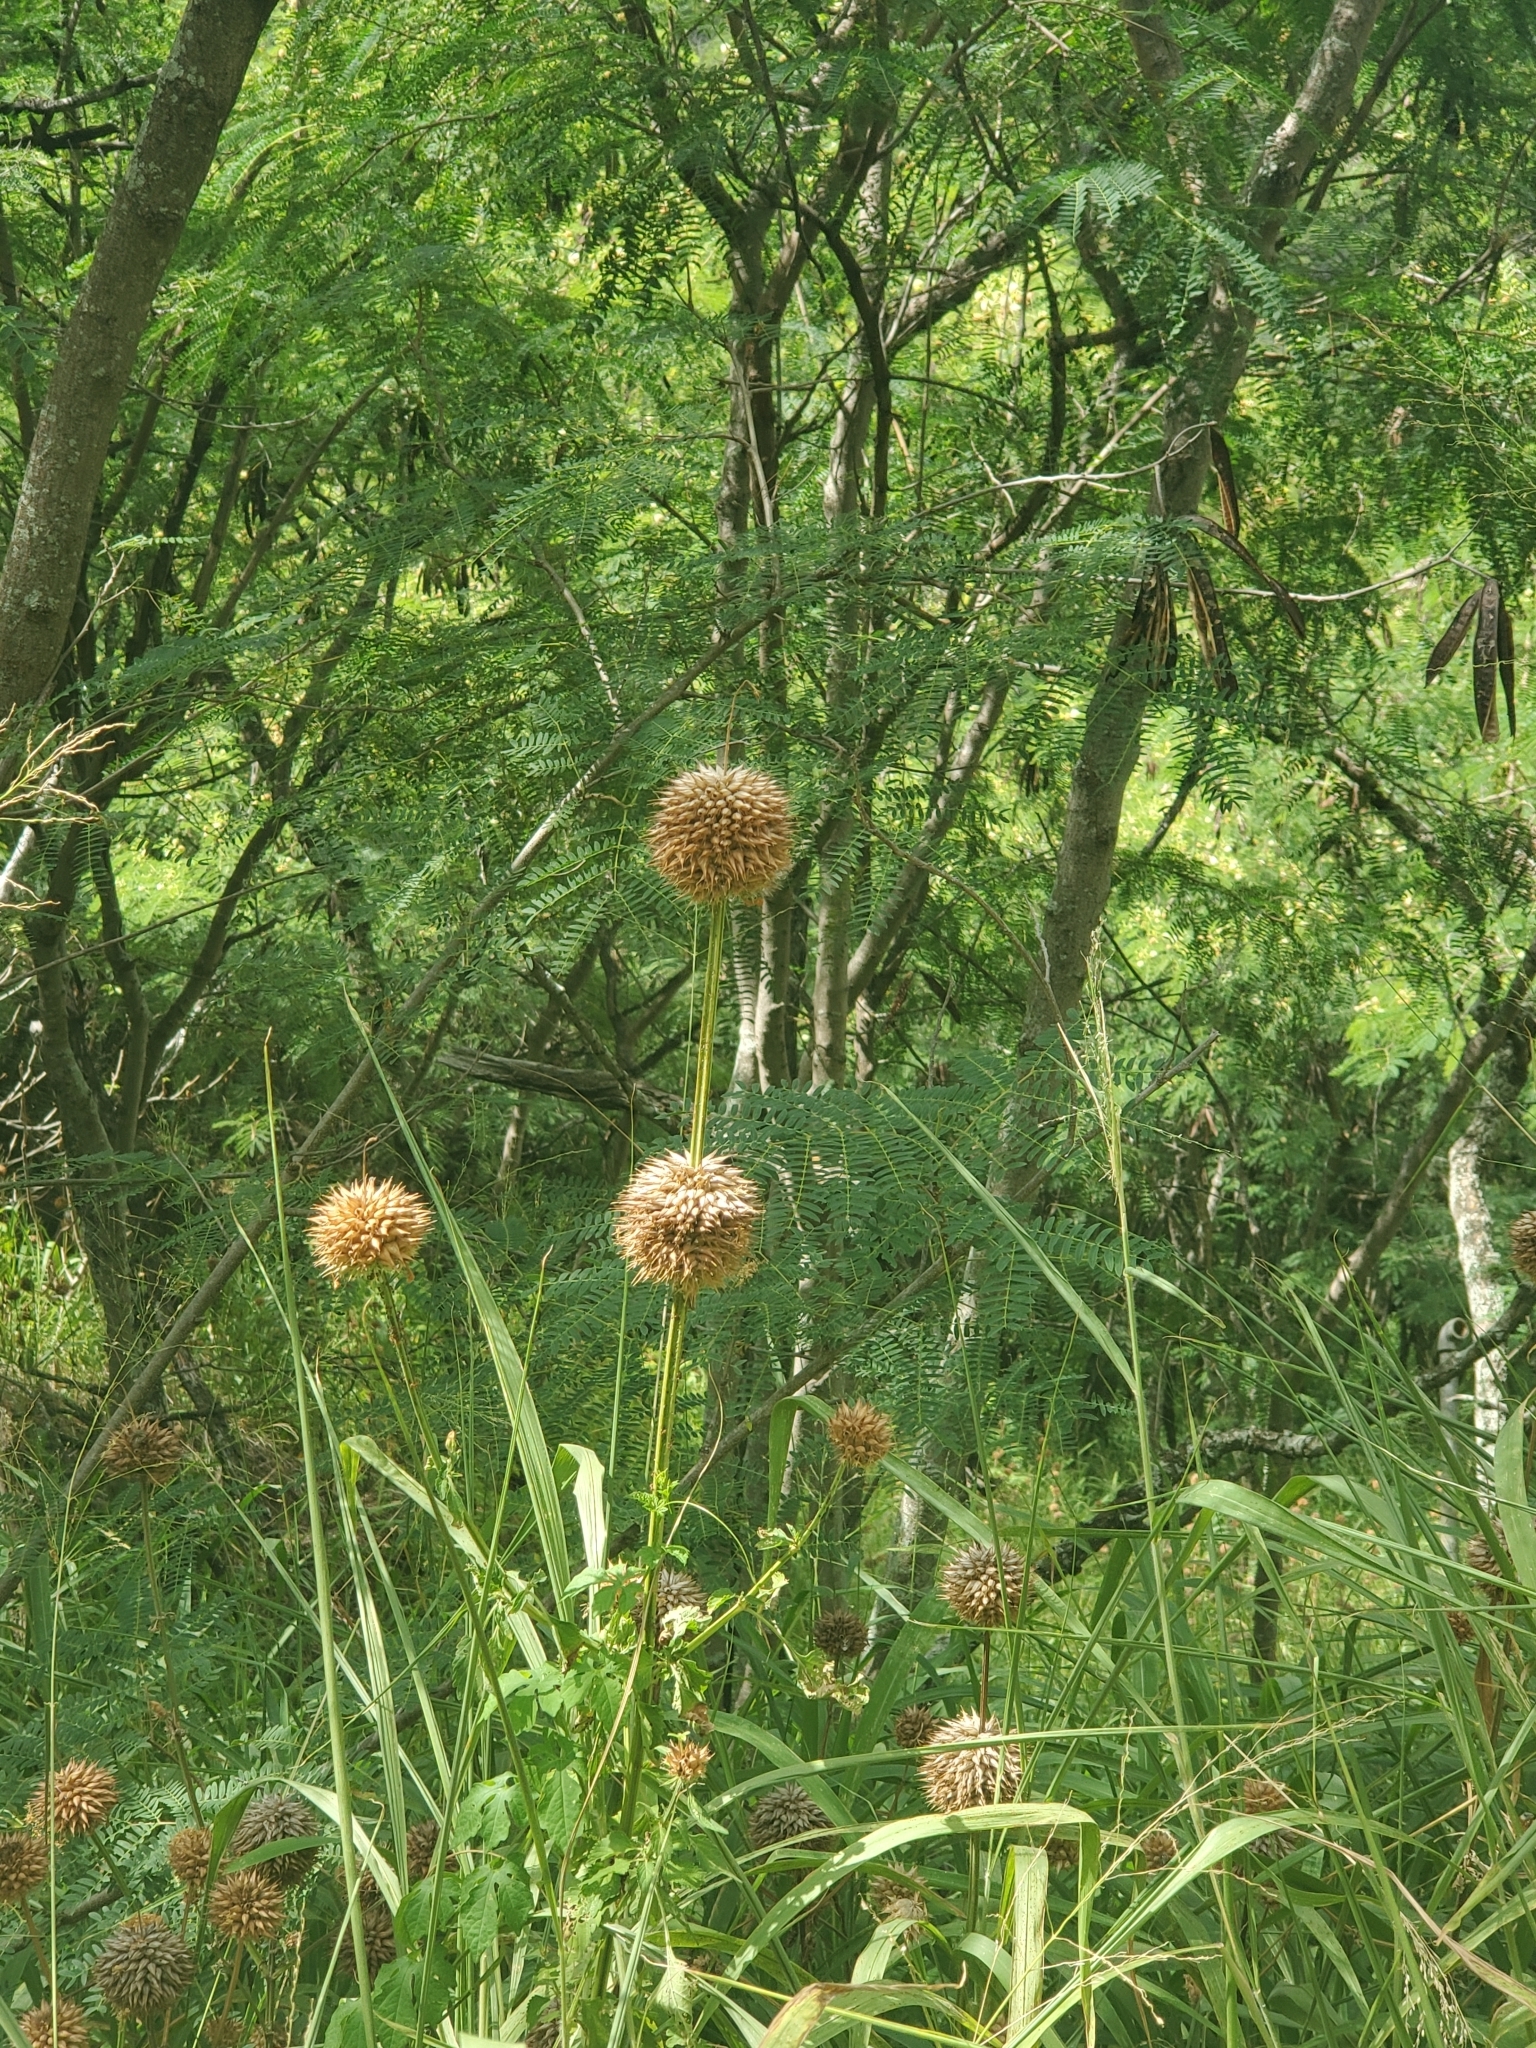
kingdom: Plantae
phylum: Tracheophyta
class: Magnoliopsida
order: Lamiales
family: Lamiaceae
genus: Leonotis
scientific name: Leonotis nepetifolia
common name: Christmas candlestick
